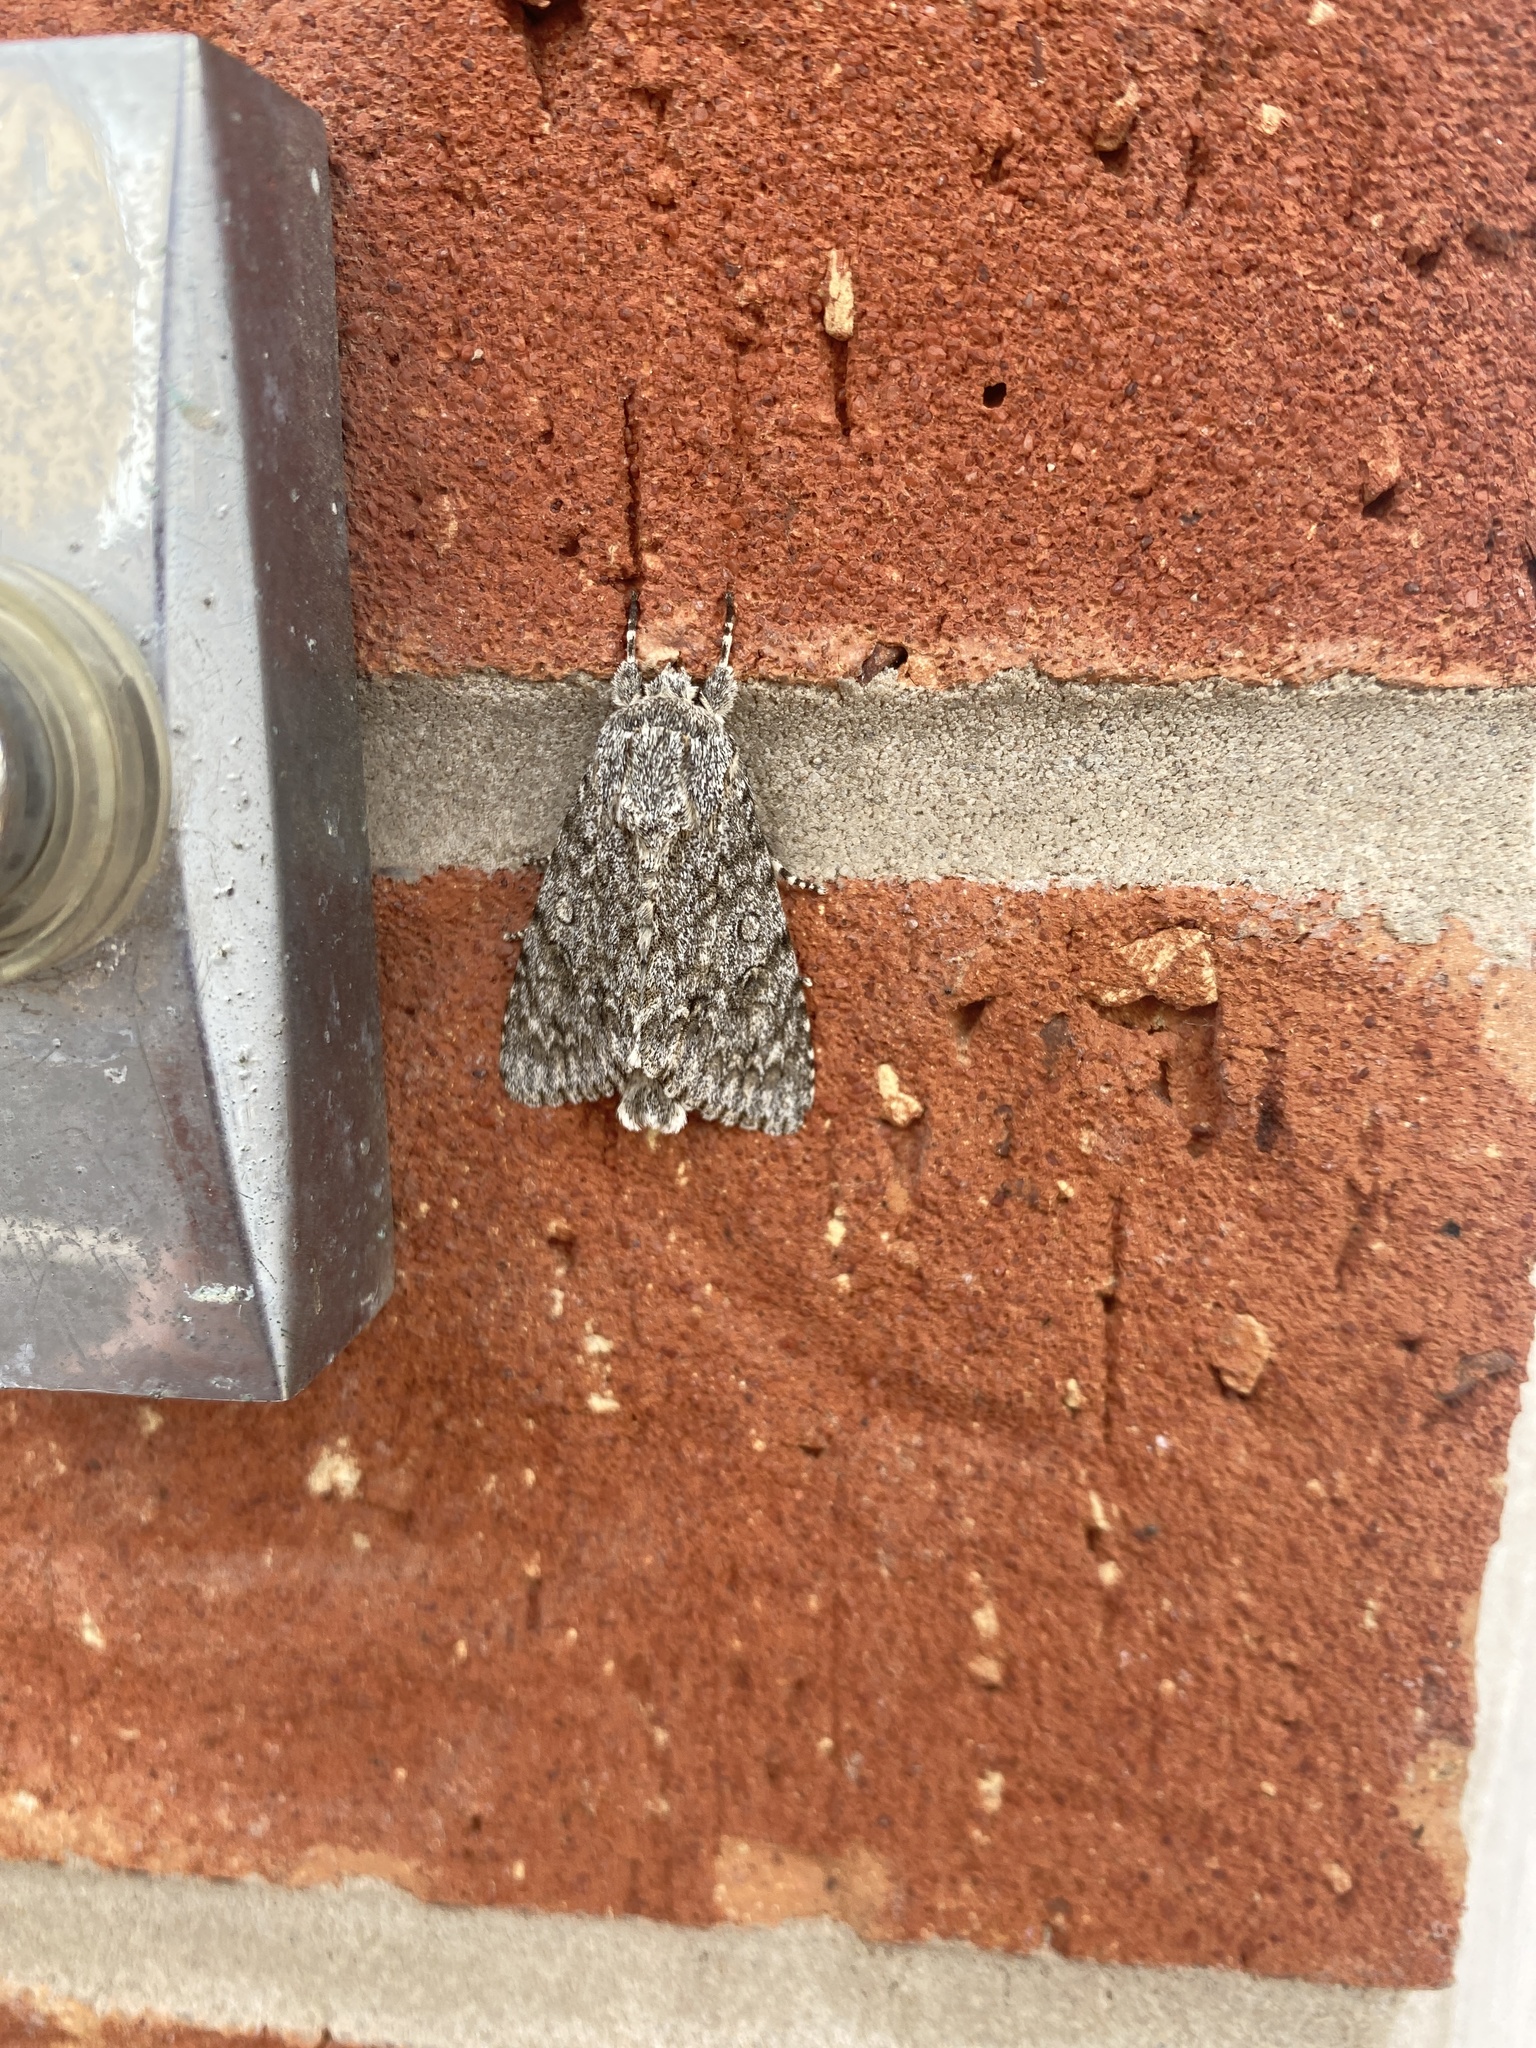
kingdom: Animalia
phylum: Arthropoda
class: Insecta
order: Lepidoptera
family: Noctuidae
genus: Acronicta
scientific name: Acronicta aceris
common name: Sycamore
